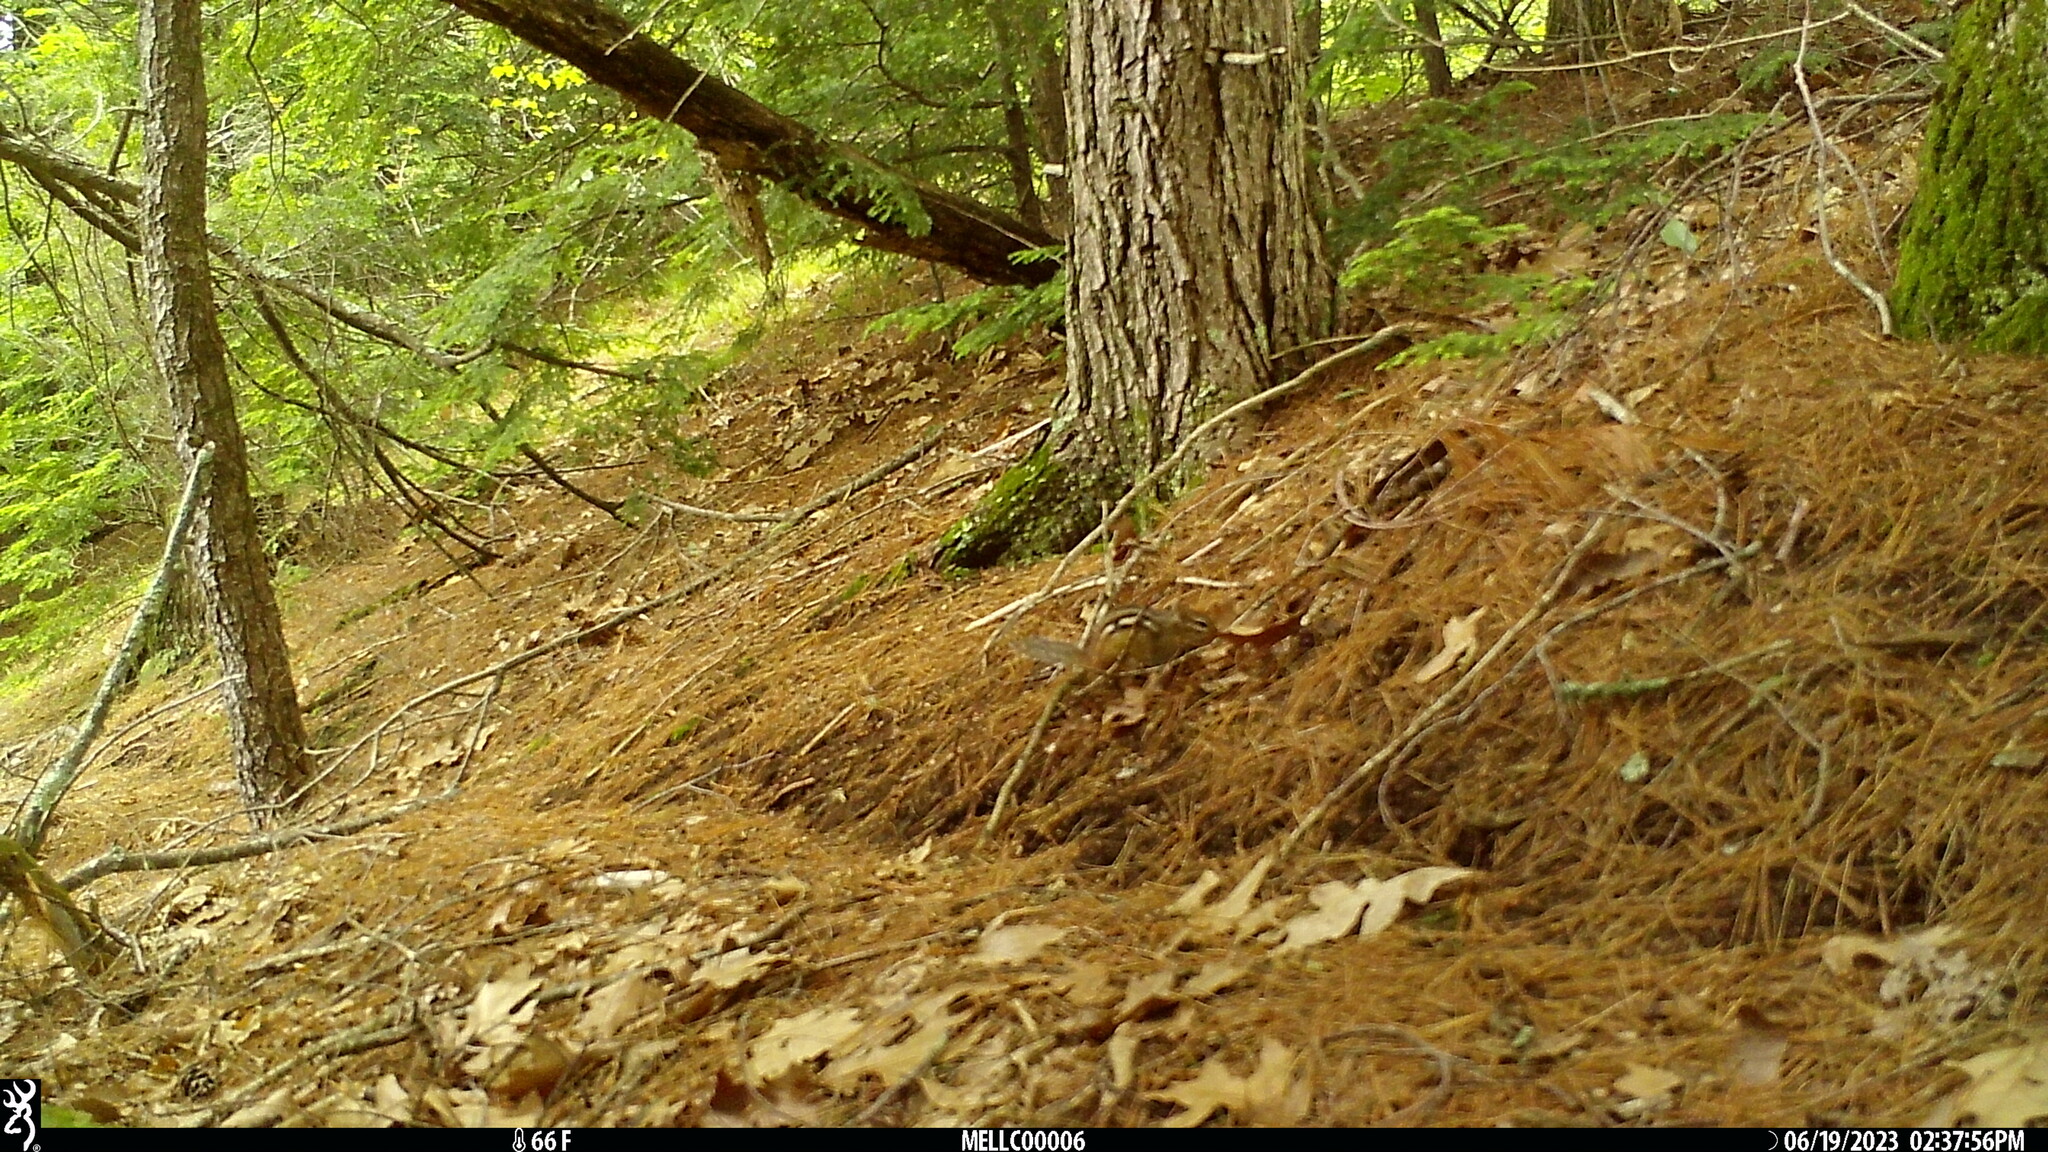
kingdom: Animalia
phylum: Chordata
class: Mammalia
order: Rodentia
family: Sciuridae
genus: Tamias
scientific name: Tamias striatus
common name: Eastern chipmunk
